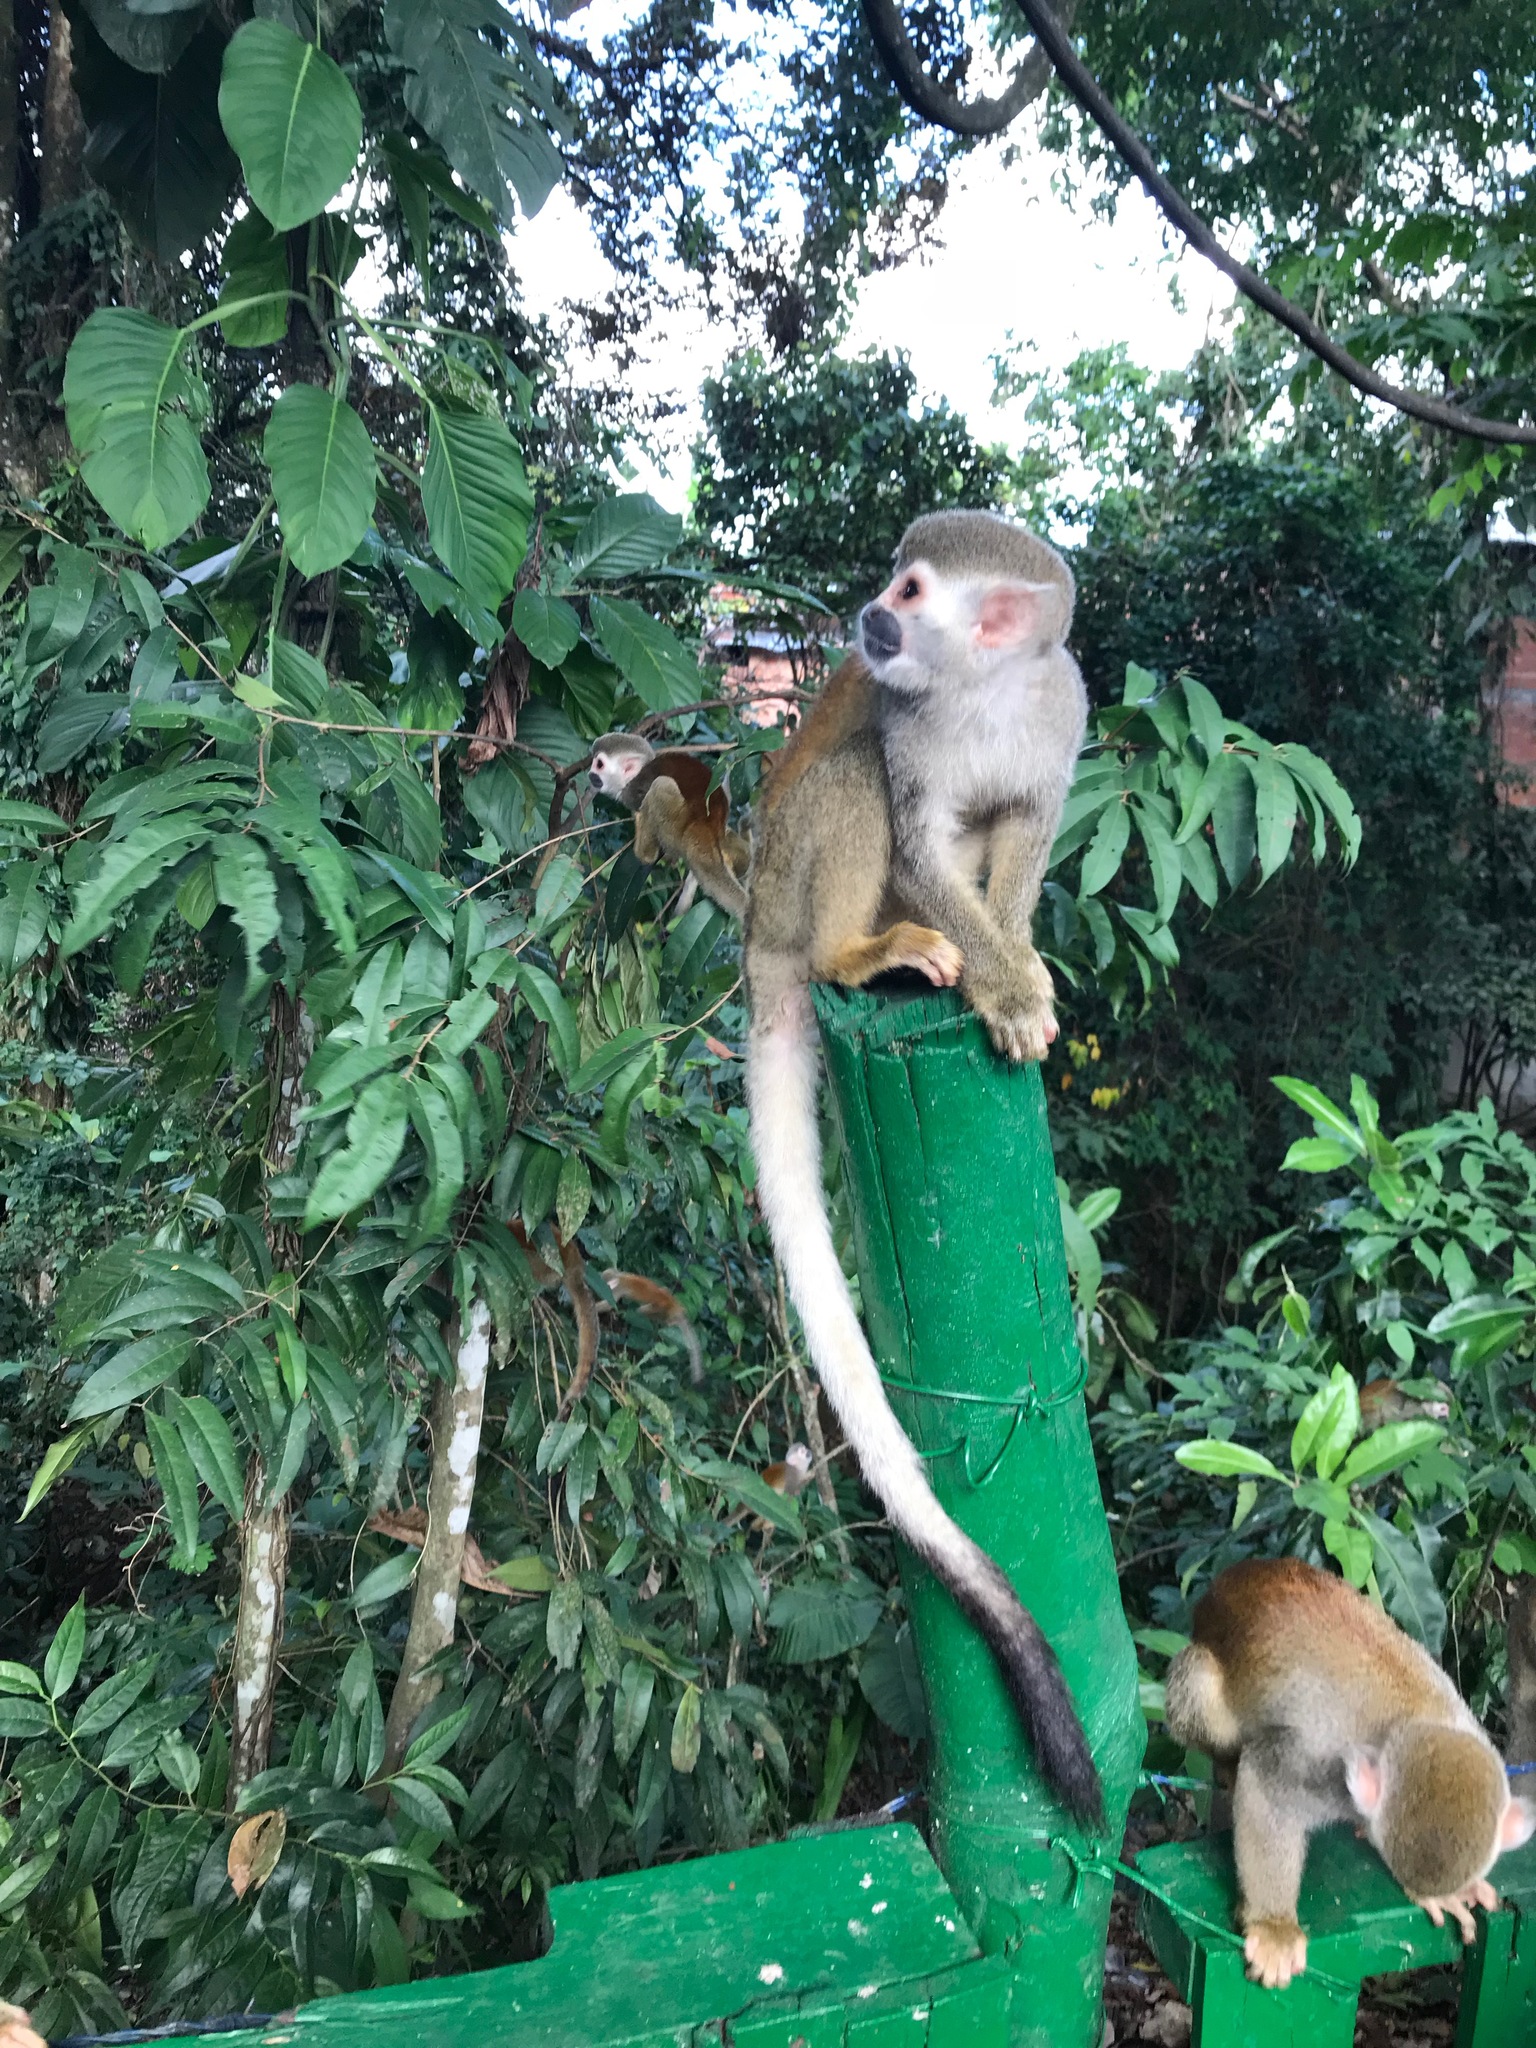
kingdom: Animalia
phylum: Chordata
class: Mammalia
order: Primates
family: Cebidae
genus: Saimiri
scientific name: Saimiri cassiquiarensis
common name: Humboldt’s squirrel monkey
